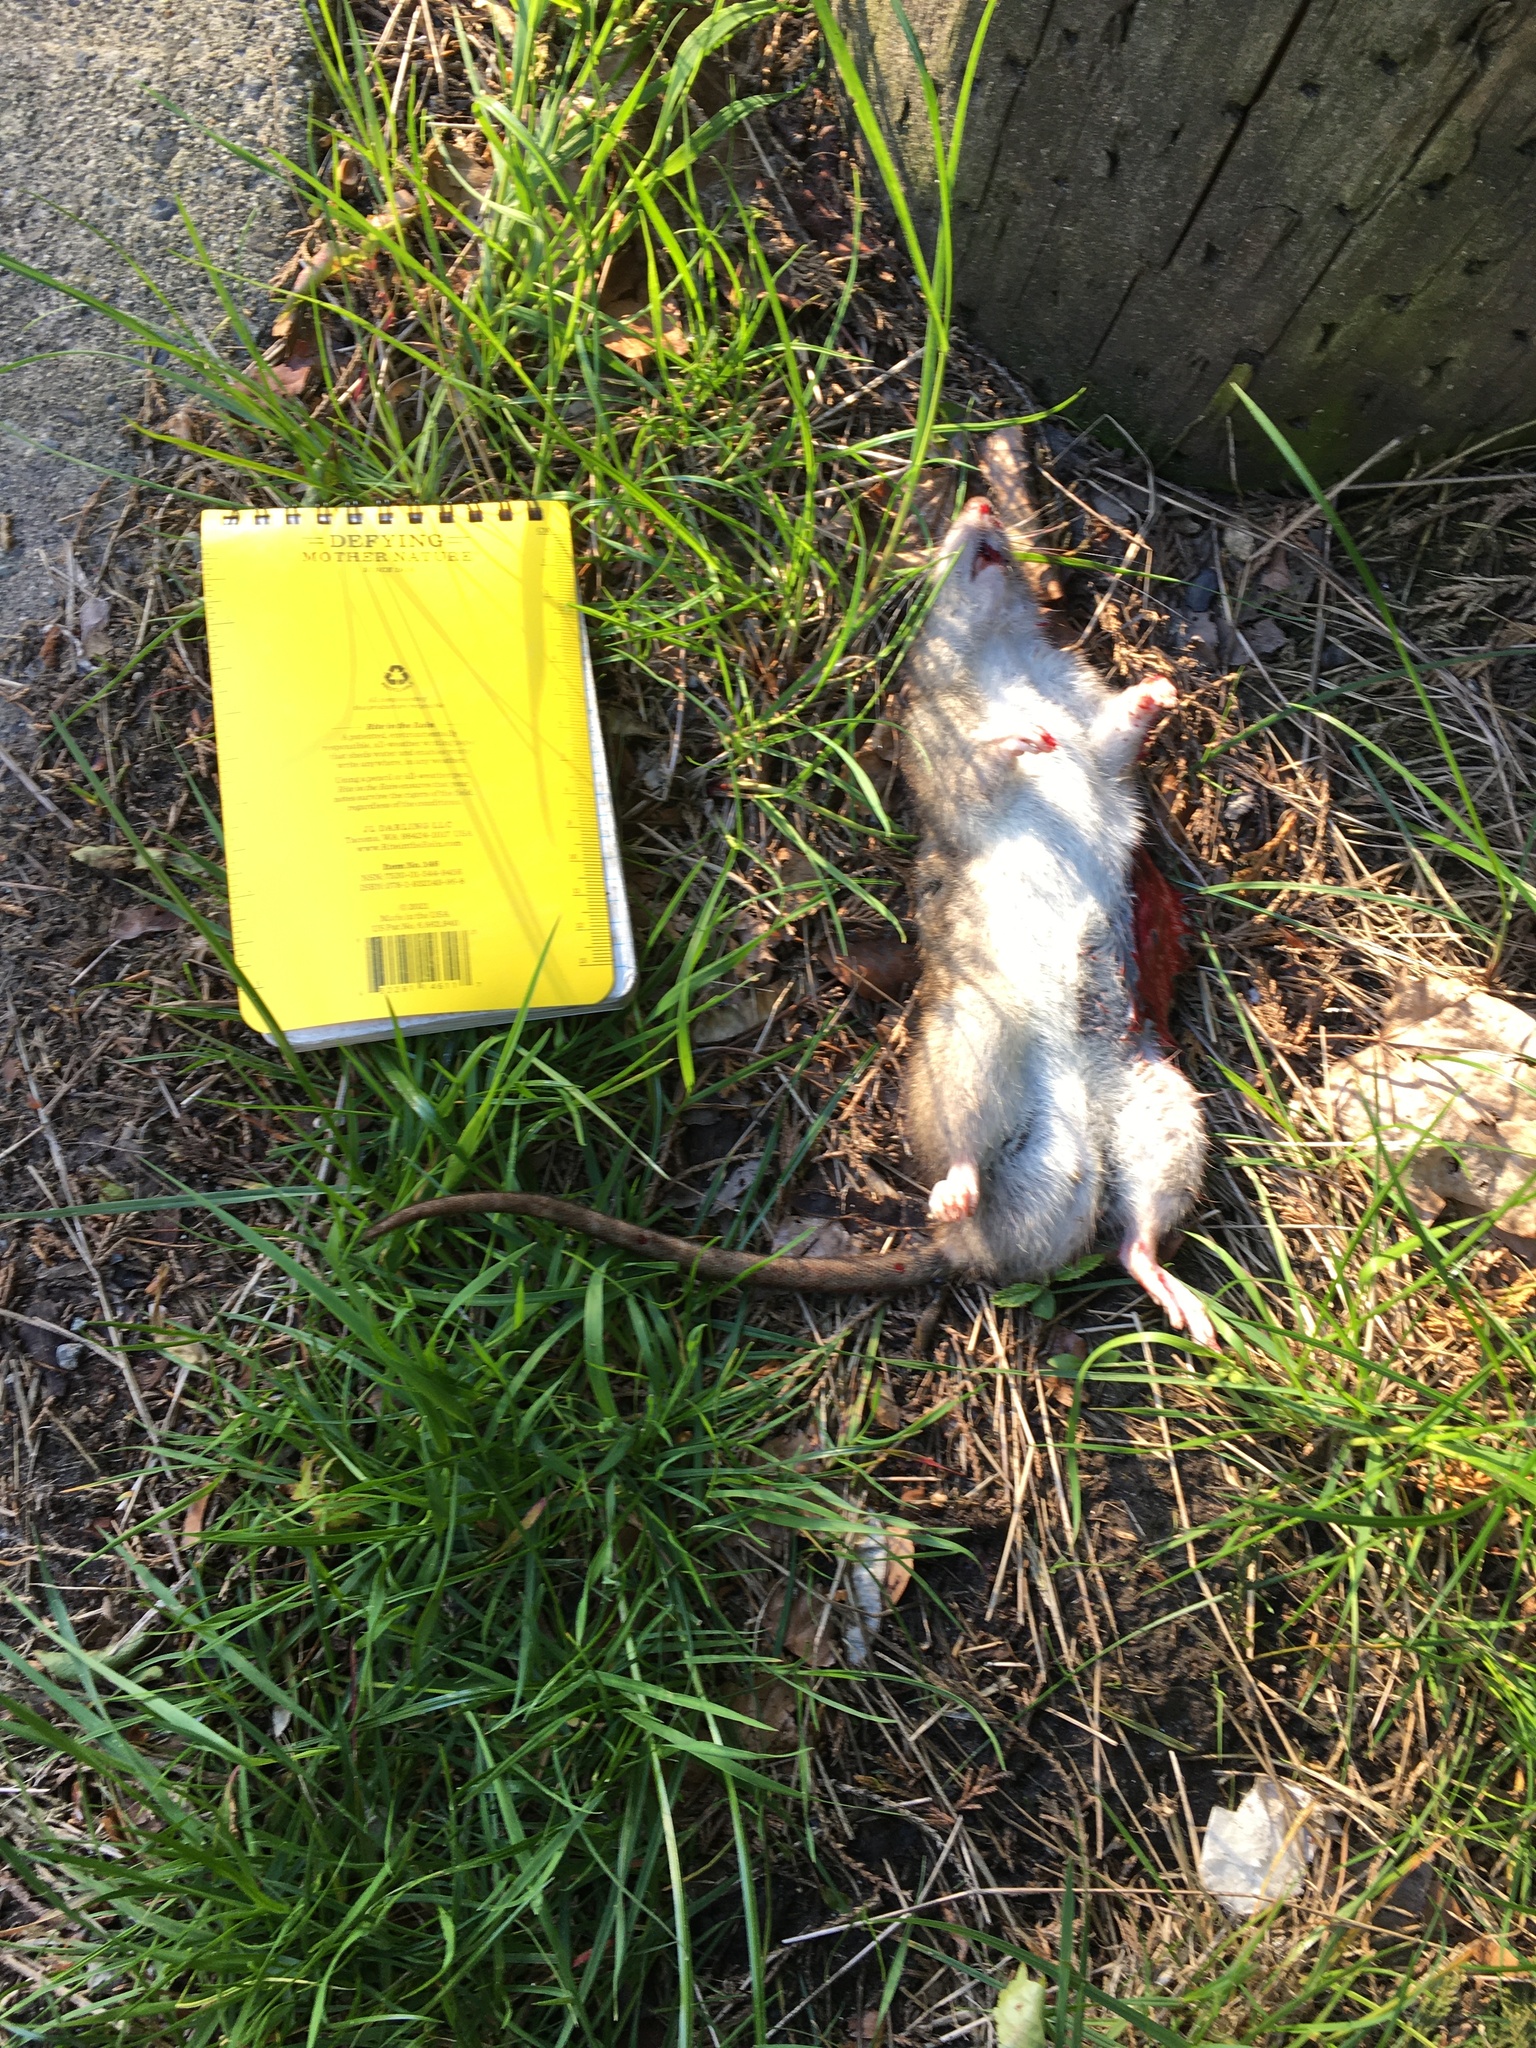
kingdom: Animalia
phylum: Chordata
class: Mammalia
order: Rodentia
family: Muridae
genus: Rattus
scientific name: Rattus norvegicus
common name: Brown rat
